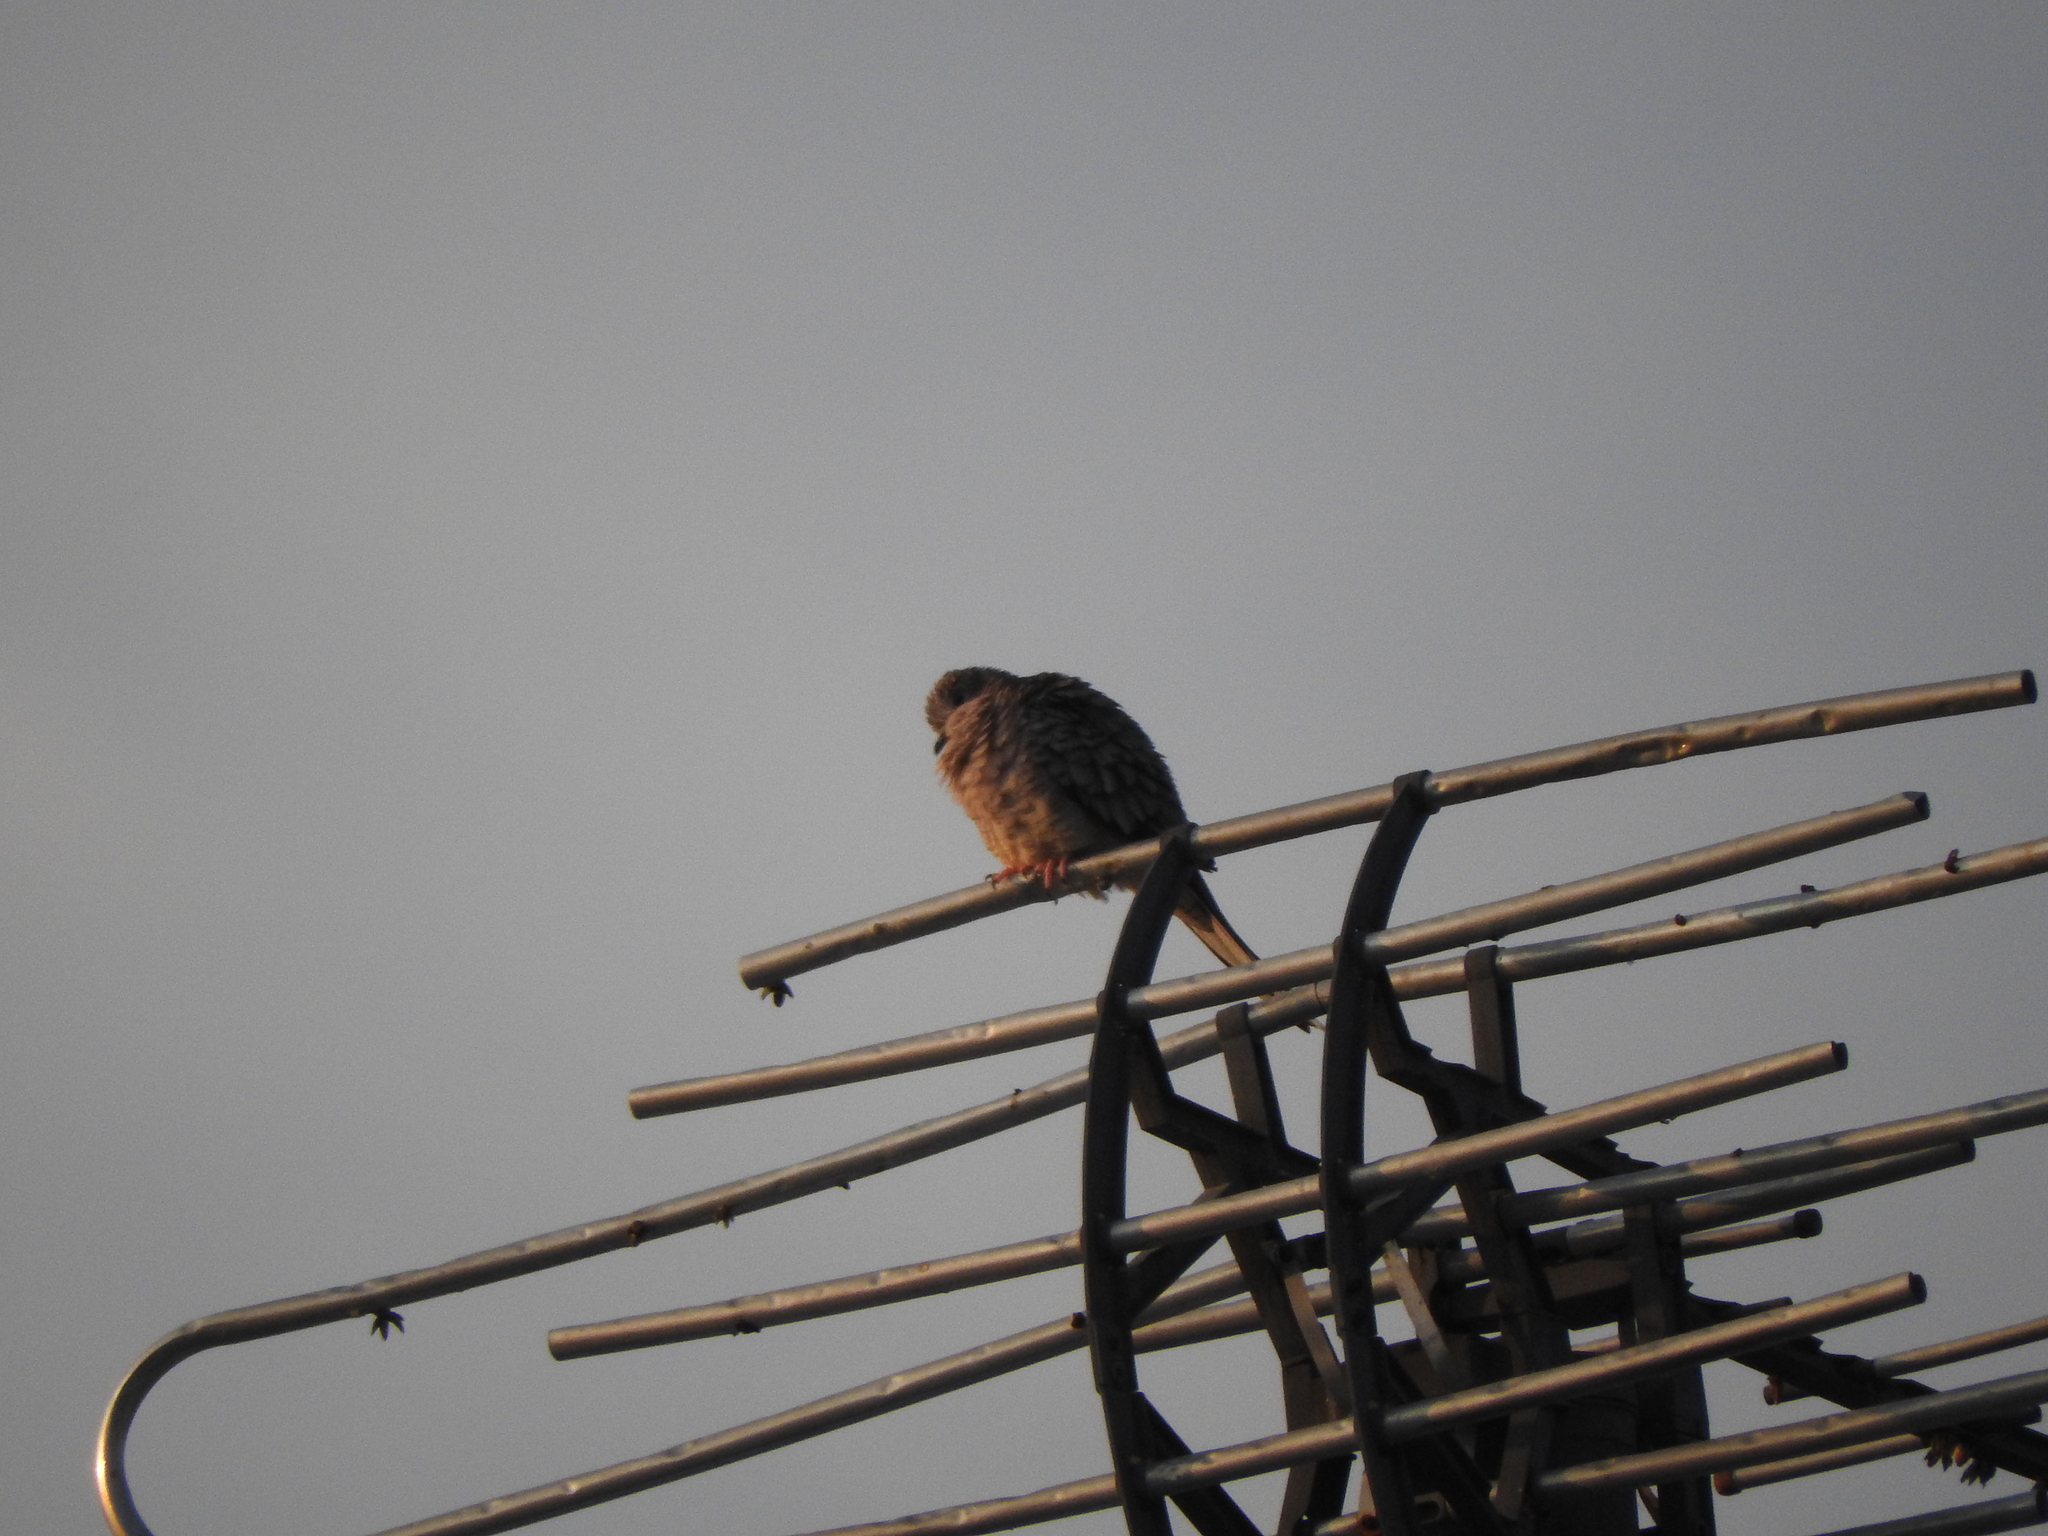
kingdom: Animalia
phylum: Chordata
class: Aves
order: Columbiformes
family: Columbidae
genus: Columbina
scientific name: Columbina inca
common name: Inca dove
